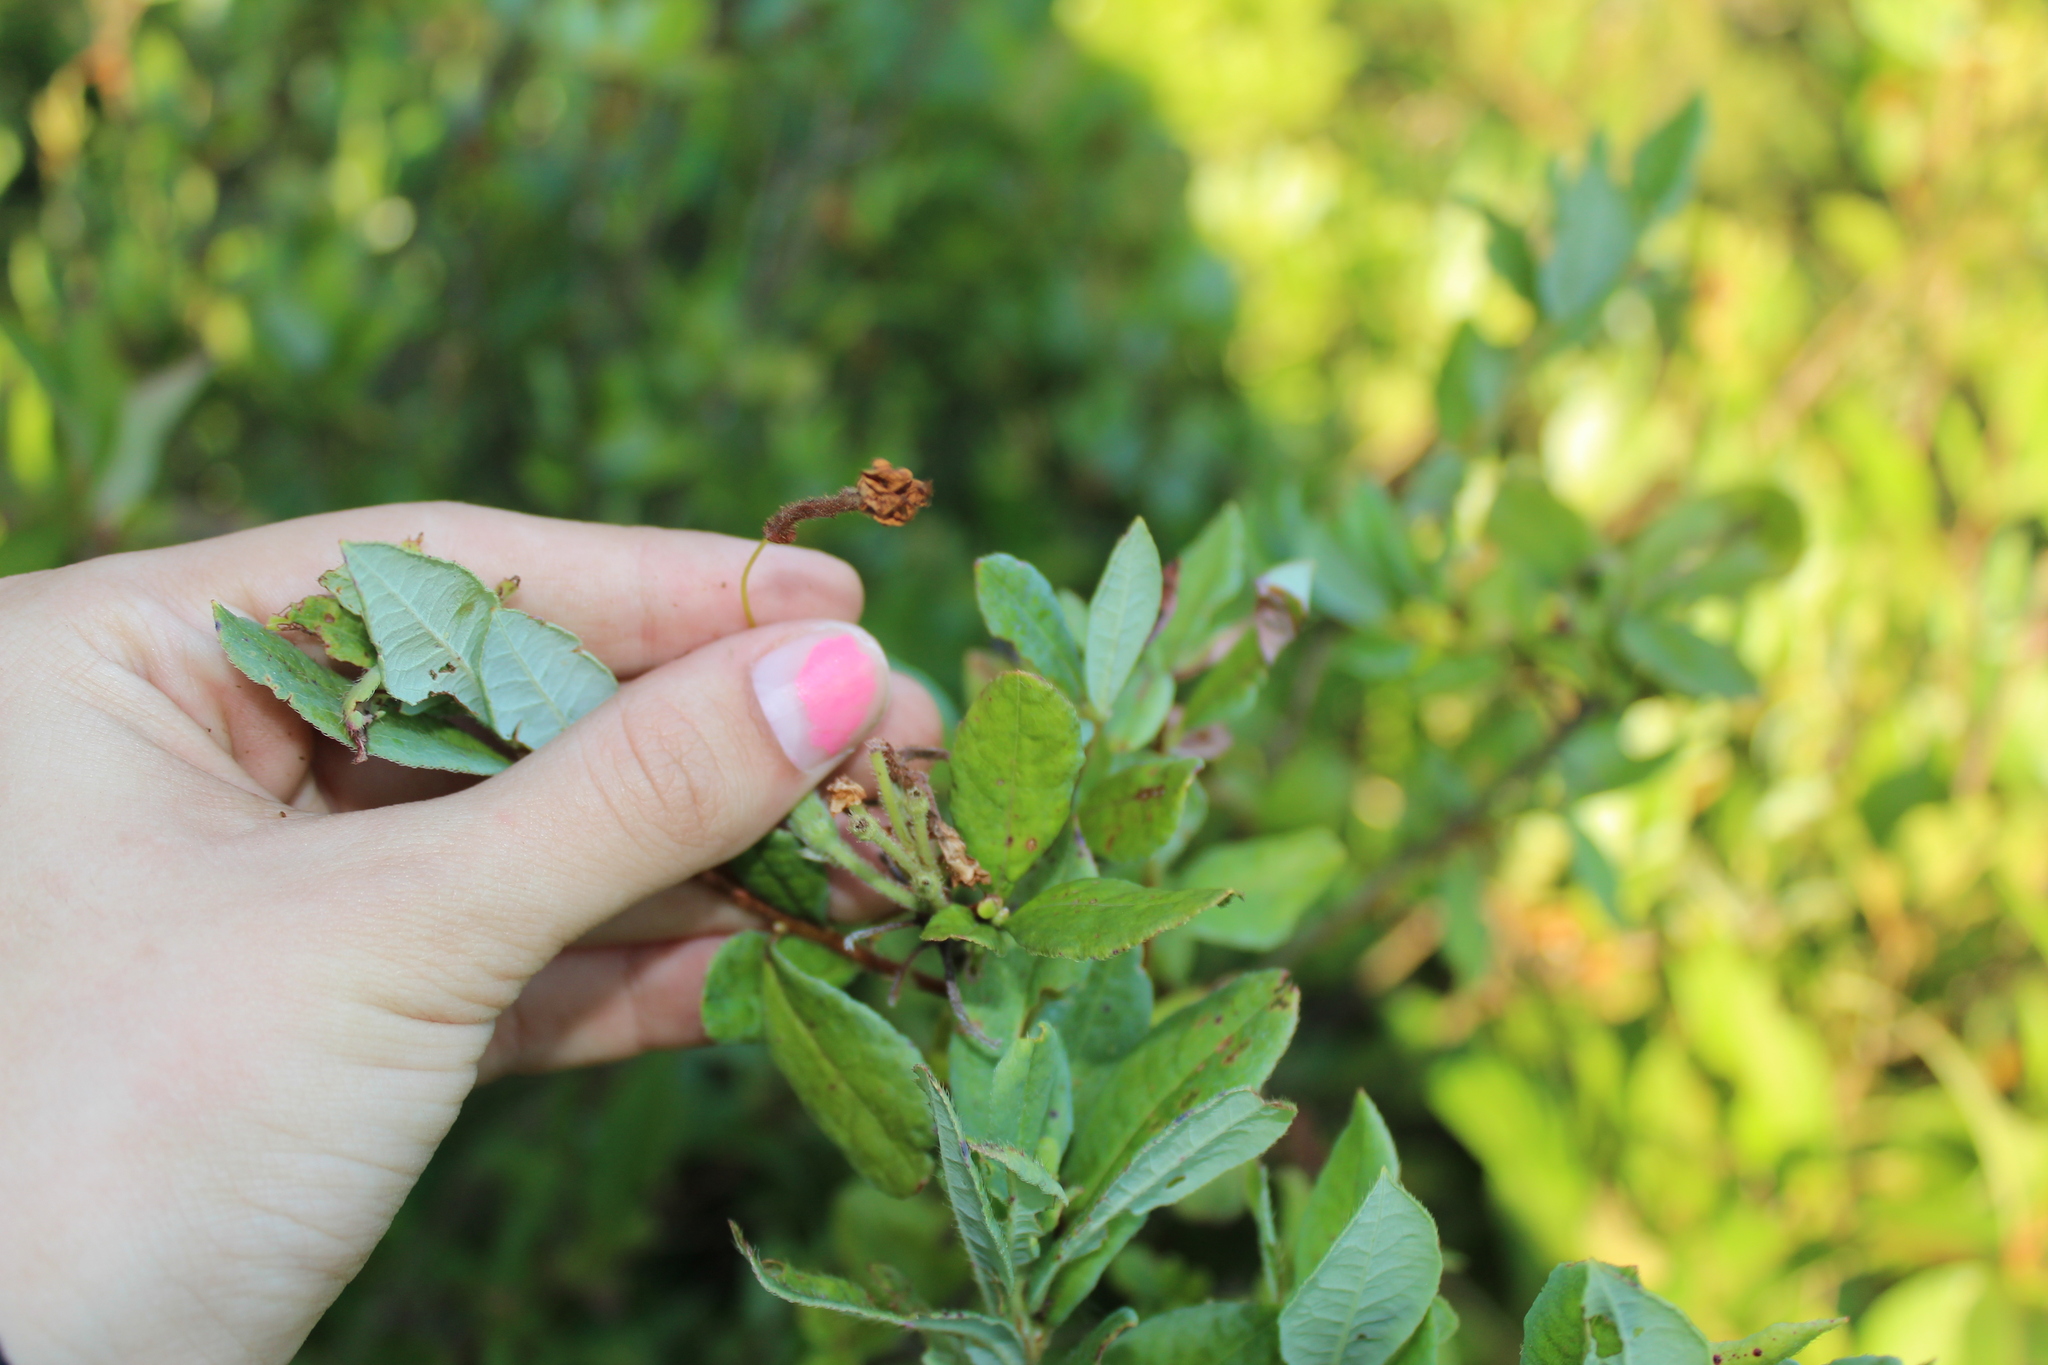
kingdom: Plantae
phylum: Tracheophyta
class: Magnoliopsida
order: Ericales
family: Ericaceae
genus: Rhododendron
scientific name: Rhododendron viscosum
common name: Clammy azalea
